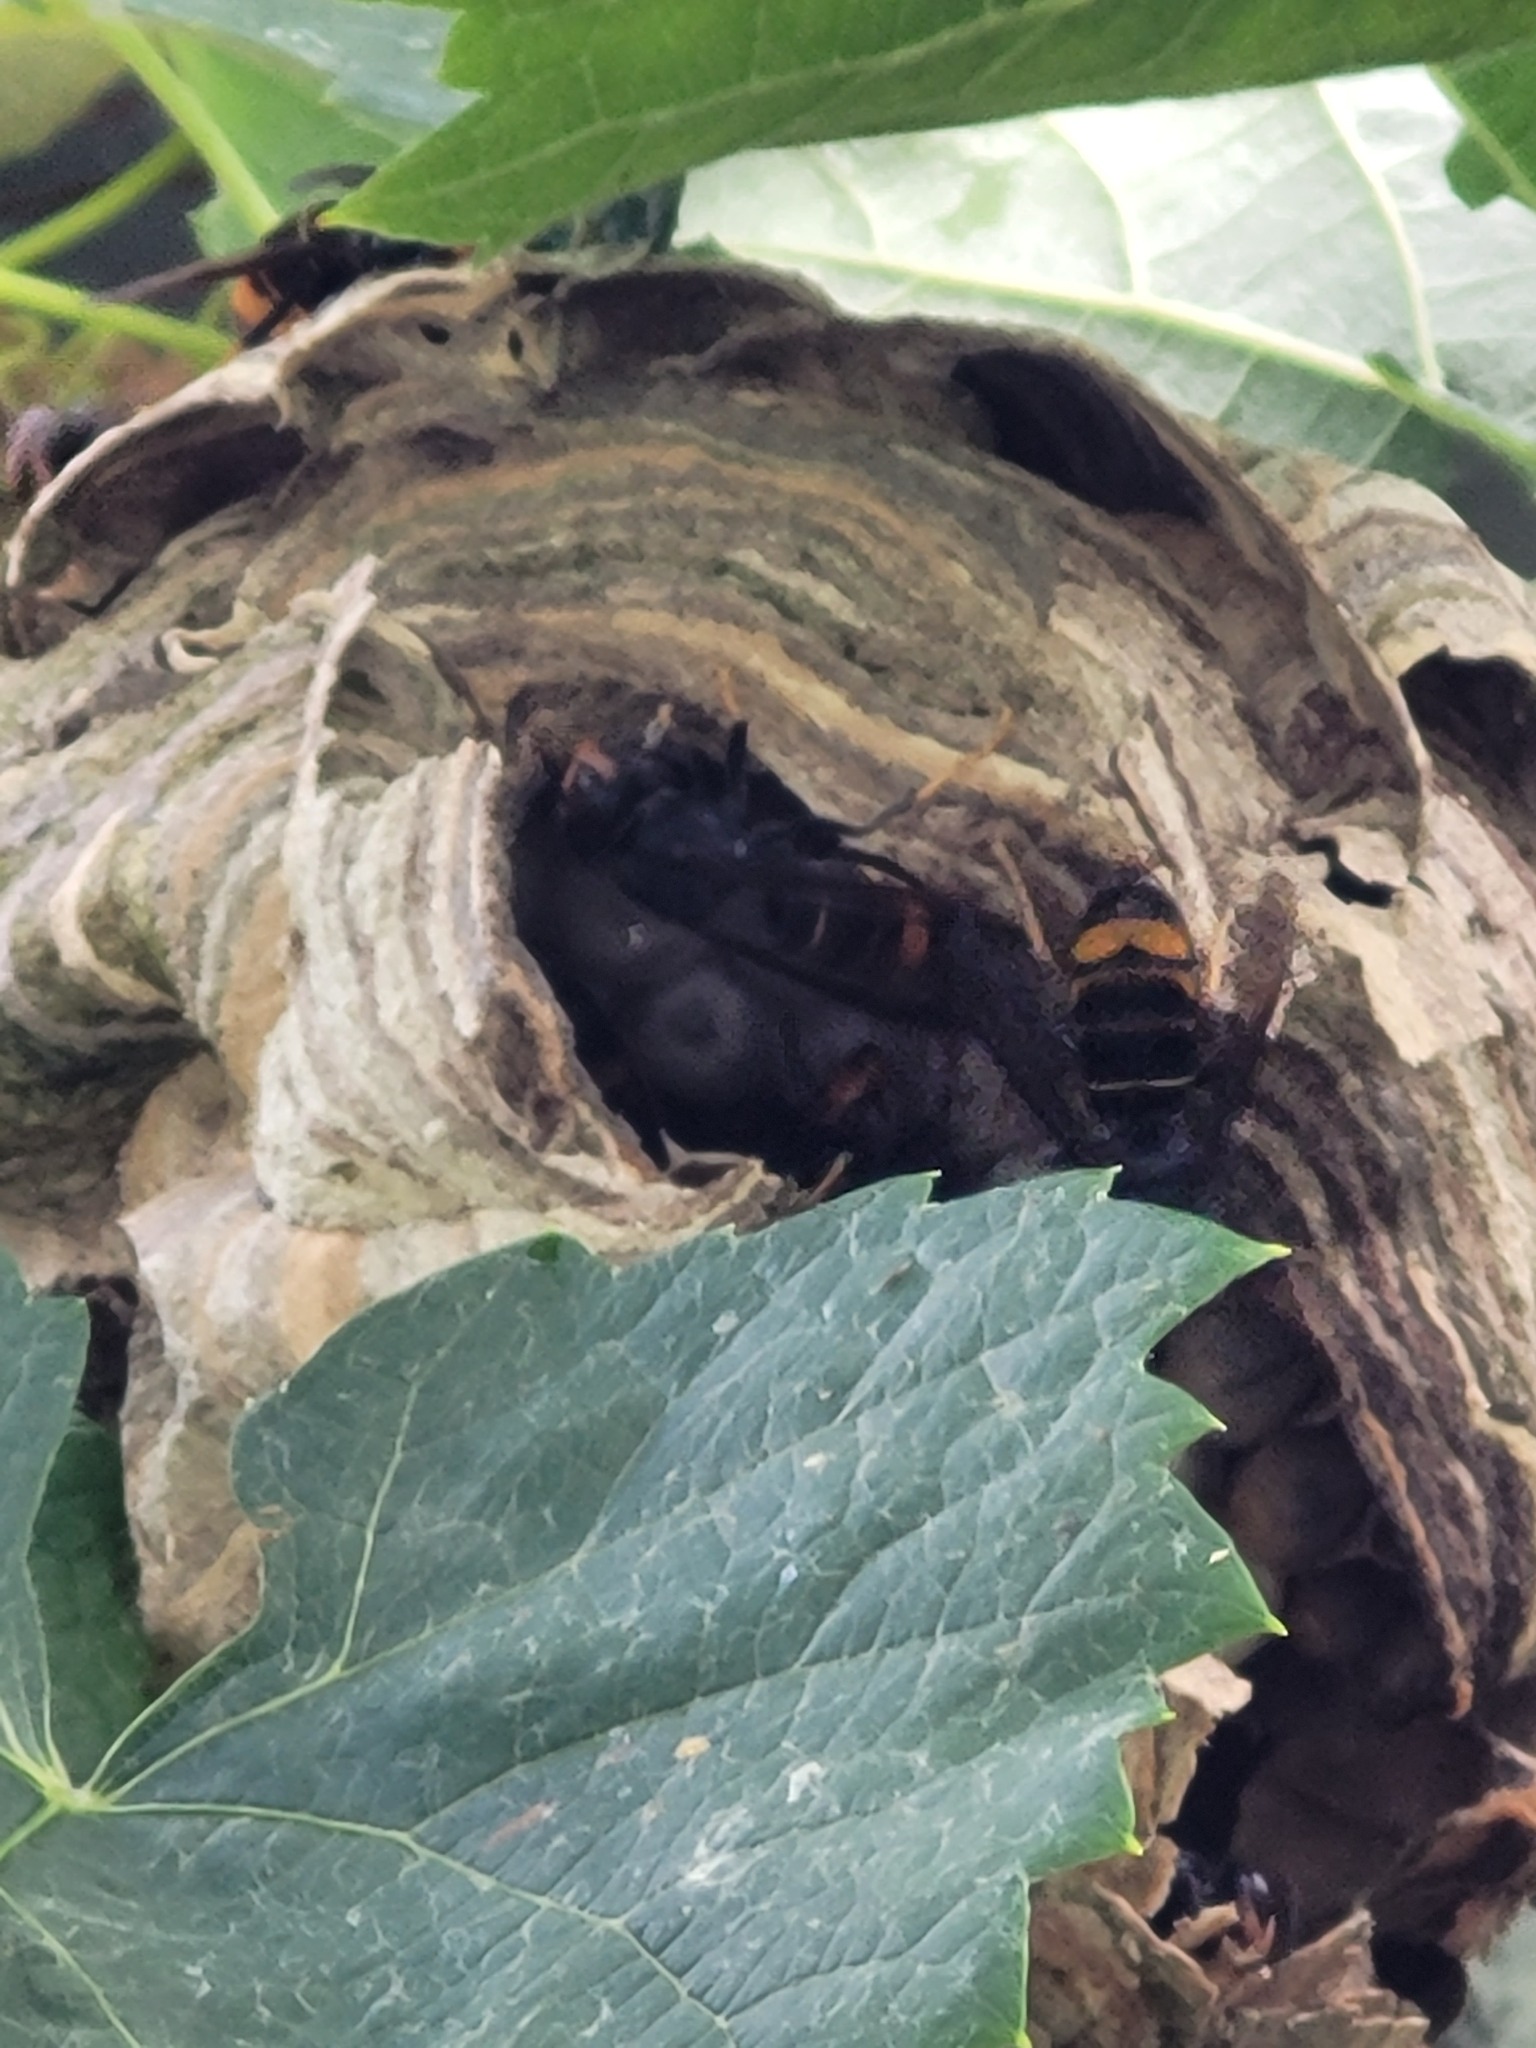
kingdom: Animalia
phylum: Arthropoda
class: Insecta
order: Hymenoptera
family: Vespidae
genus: Vespa
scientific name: Vespa velutina
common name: Asian hornet
